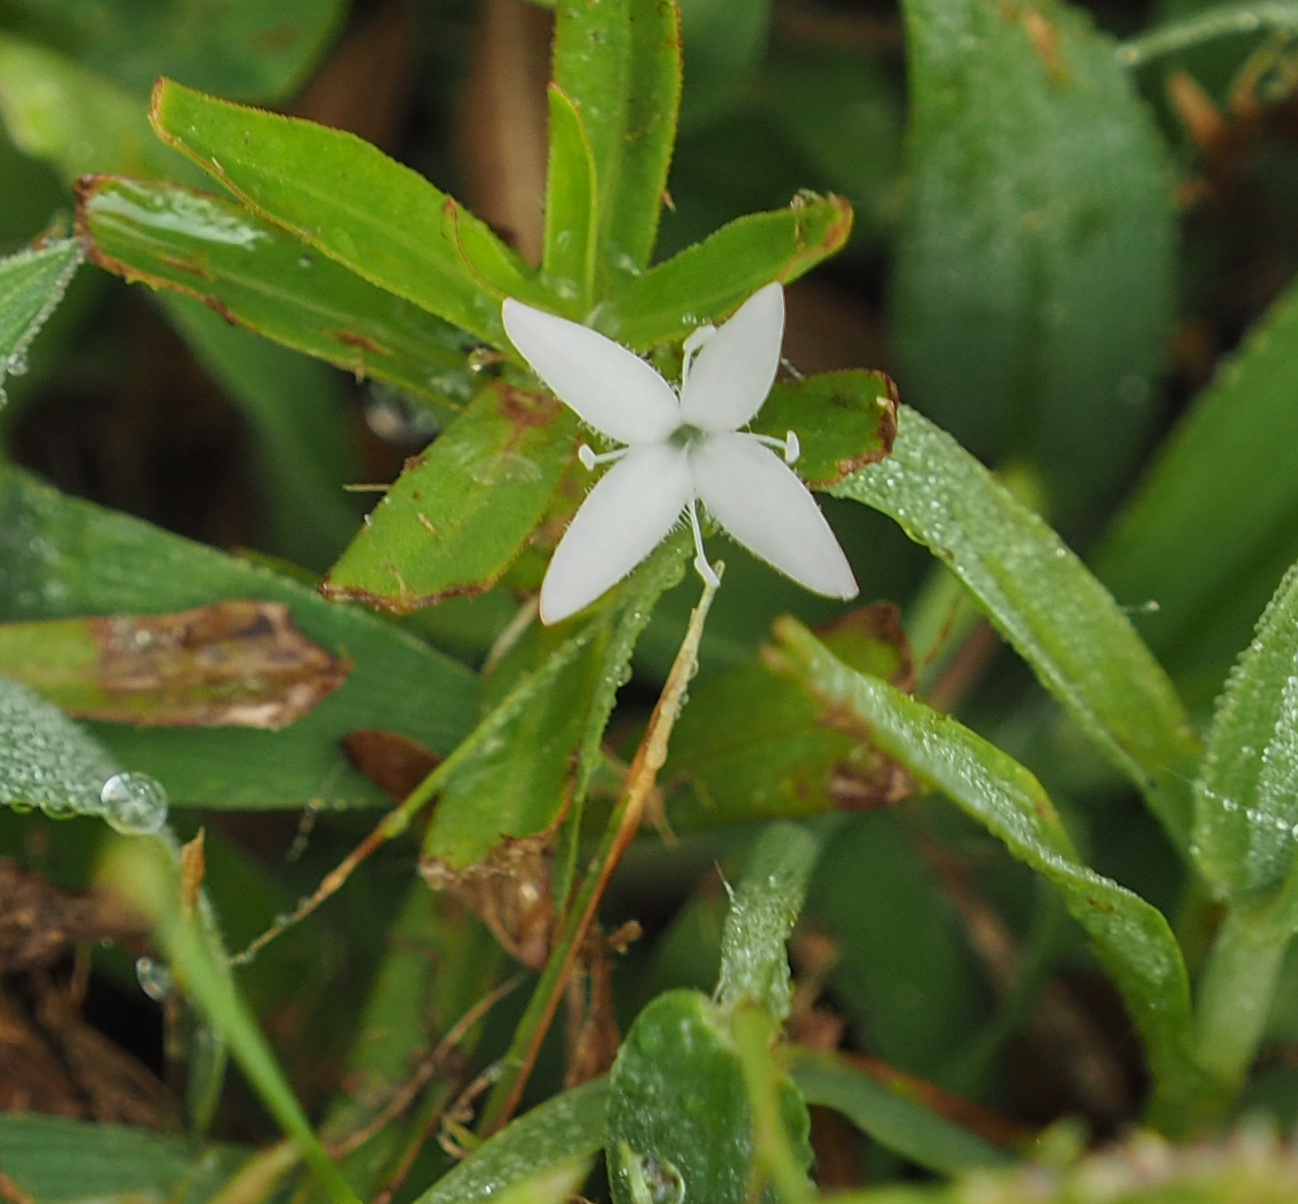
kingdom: Plantae
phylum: Tracheophyta
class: Magnoliopsida
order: Gentianales
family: Rubiaceae
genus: Diodia
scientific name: Diodia virginiana
